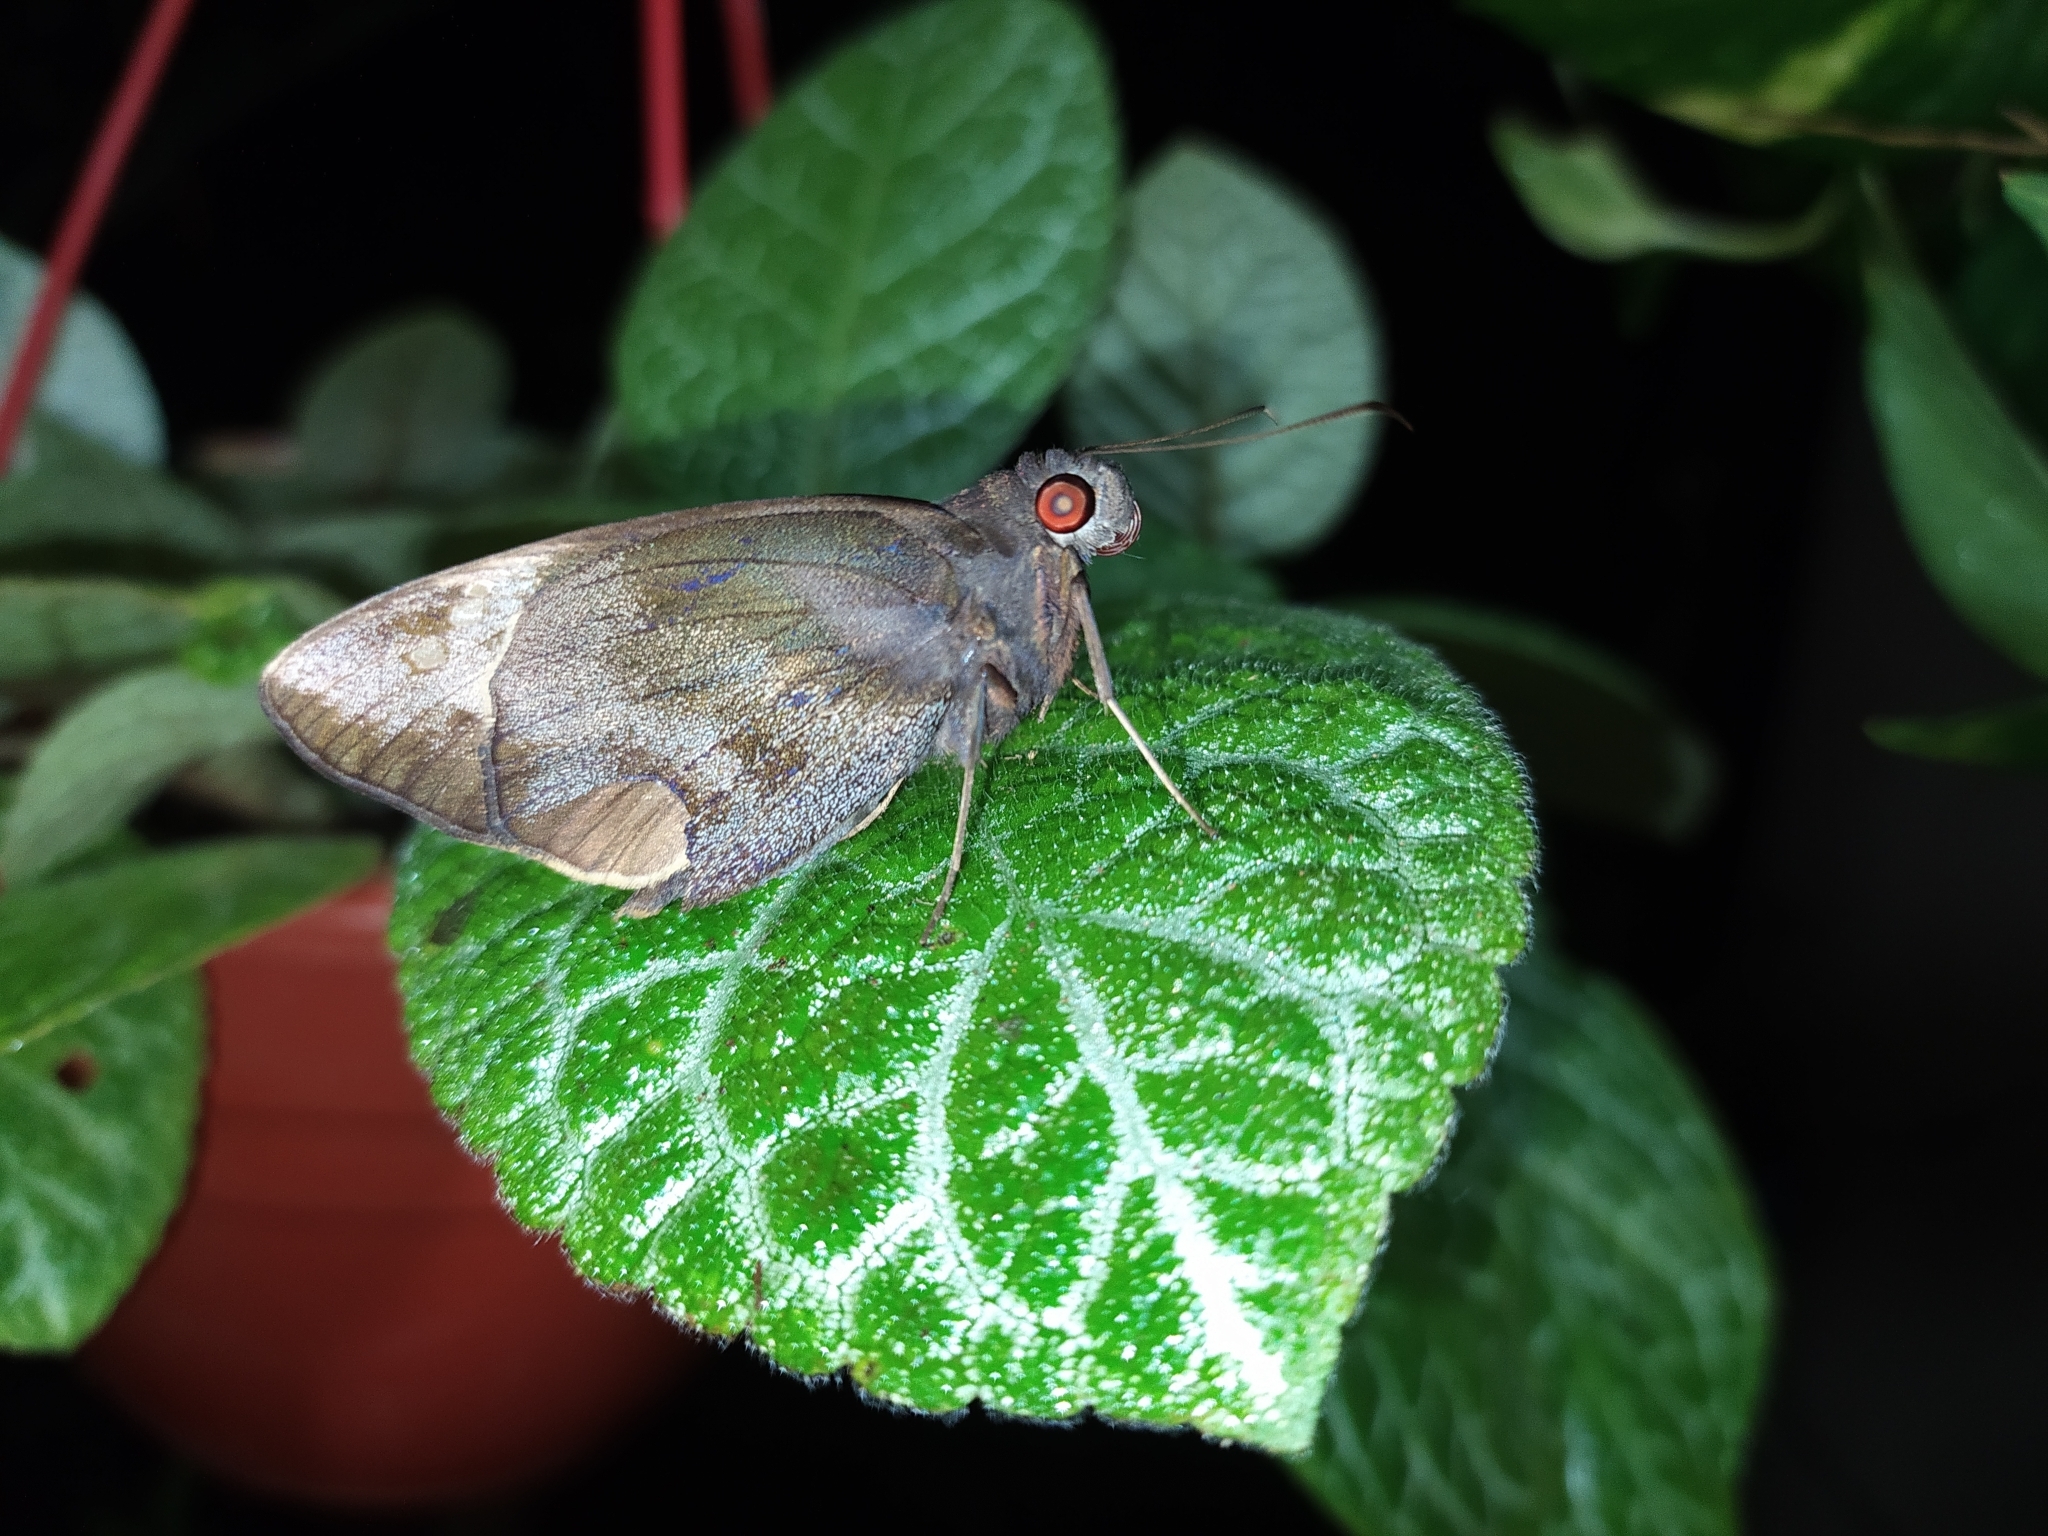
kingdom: Animalia
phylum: Arthropoda
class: Insecta
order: Lepidoptera
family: Hesperiidae
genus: Gangara
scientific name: Gangara thyrsis
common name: Giant redeye
